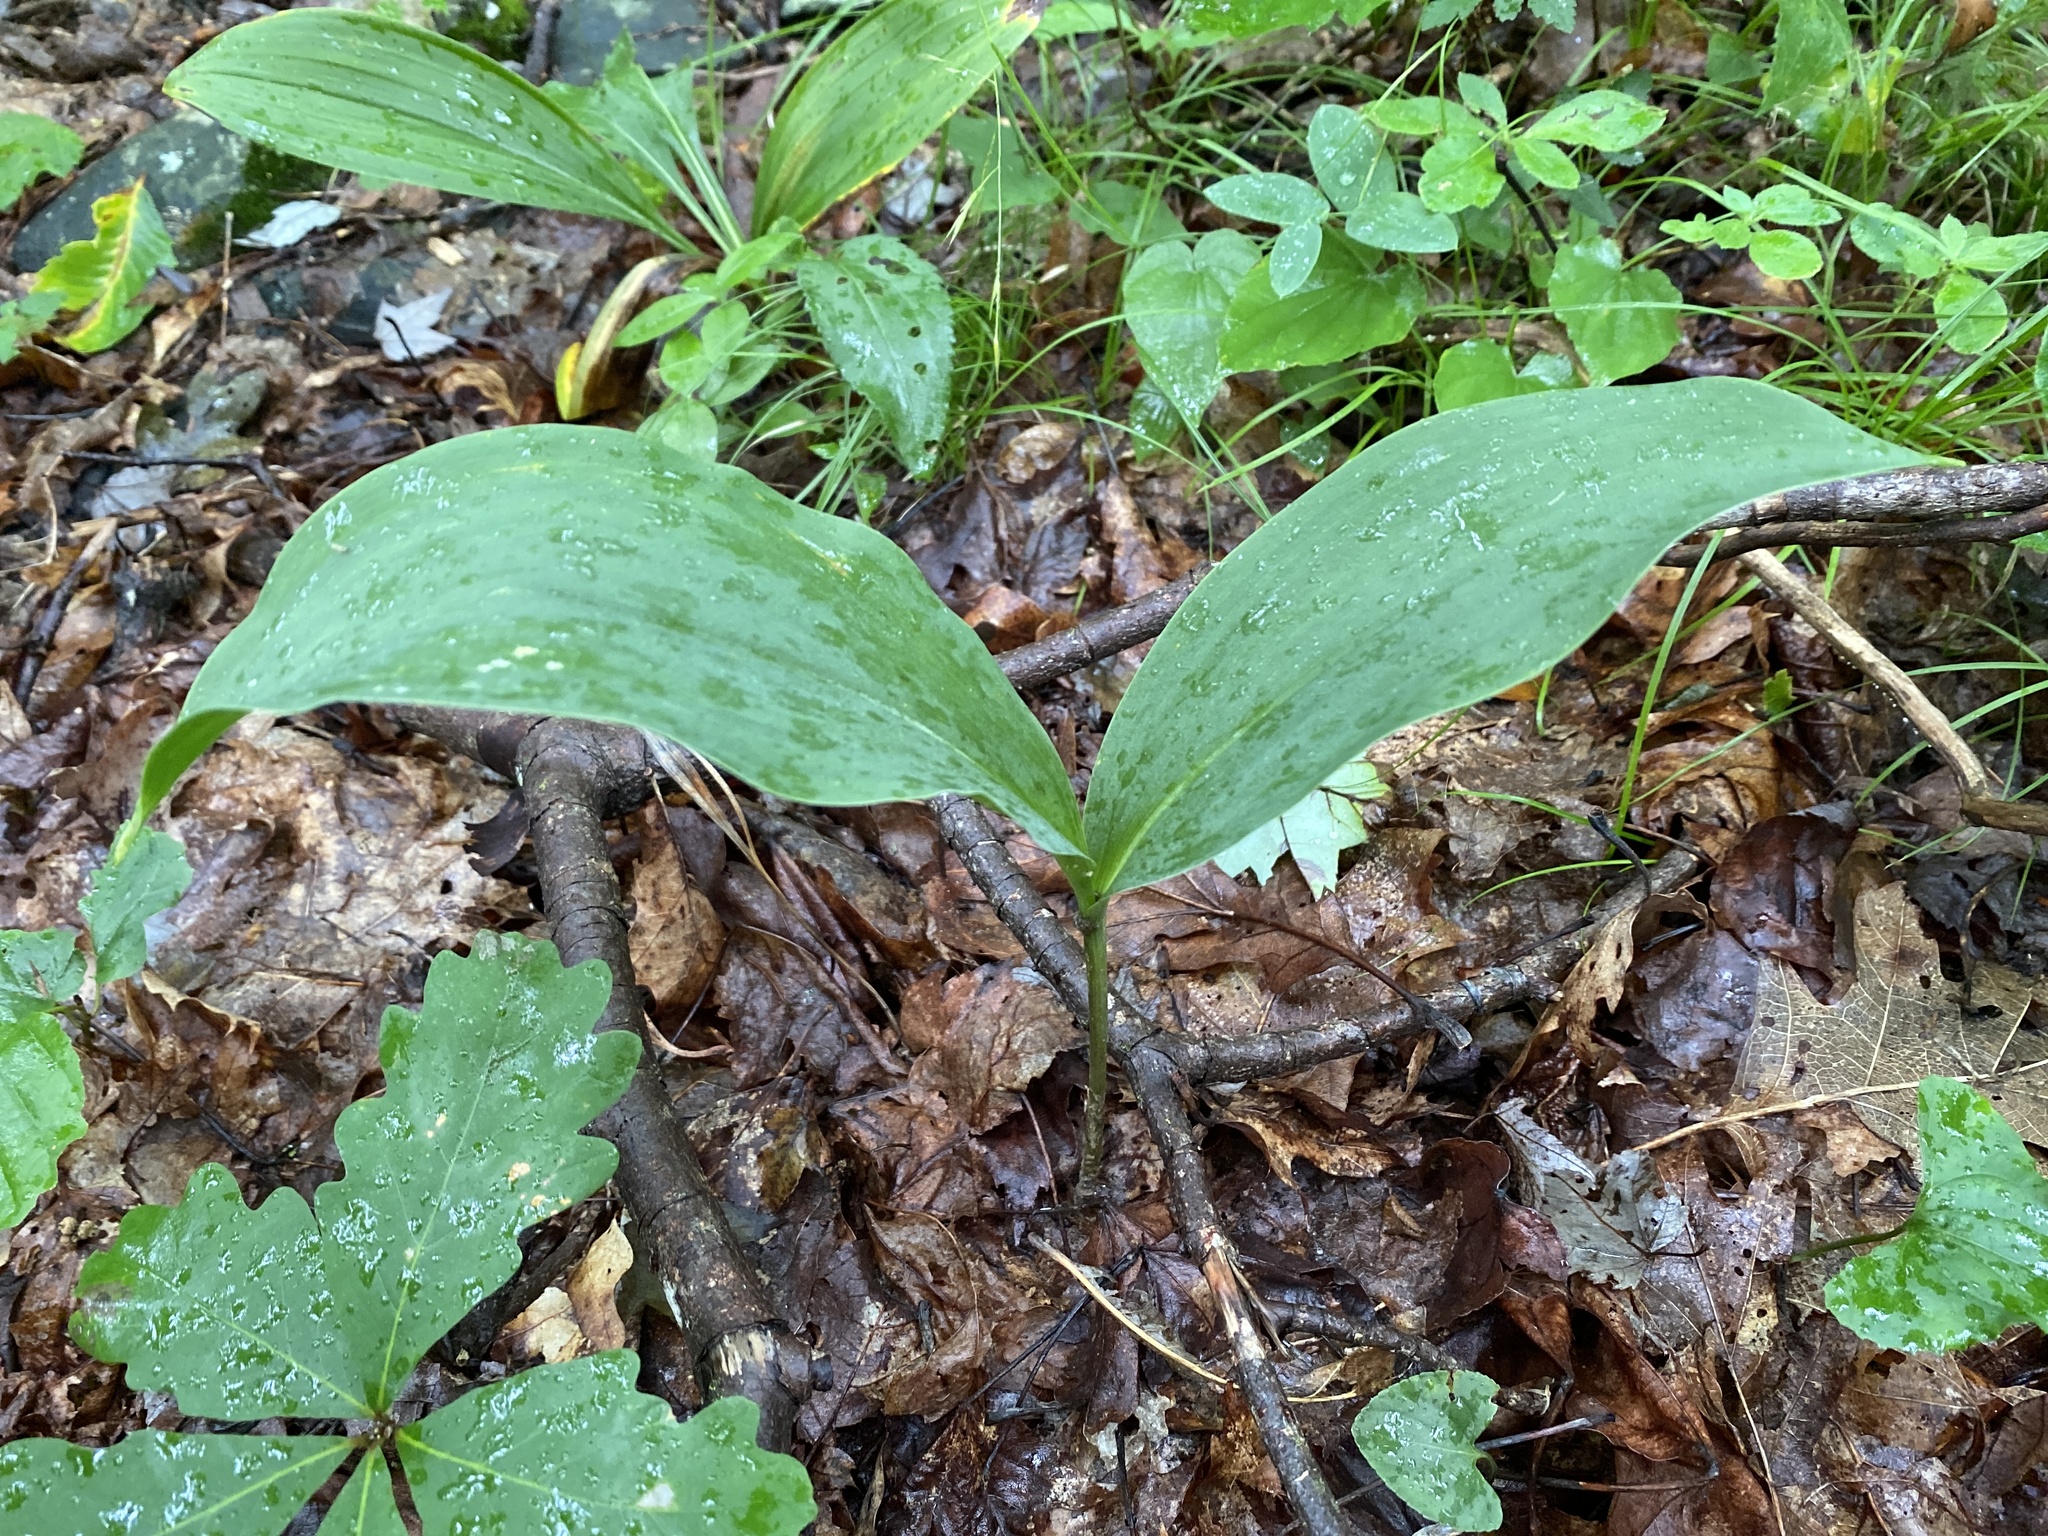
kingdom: Plantae
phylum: Tracheophyta
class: Liliopsida
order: Asparagales
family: Asparagaceae
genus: Convallaria
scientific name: Convallaria pseudomajalis
